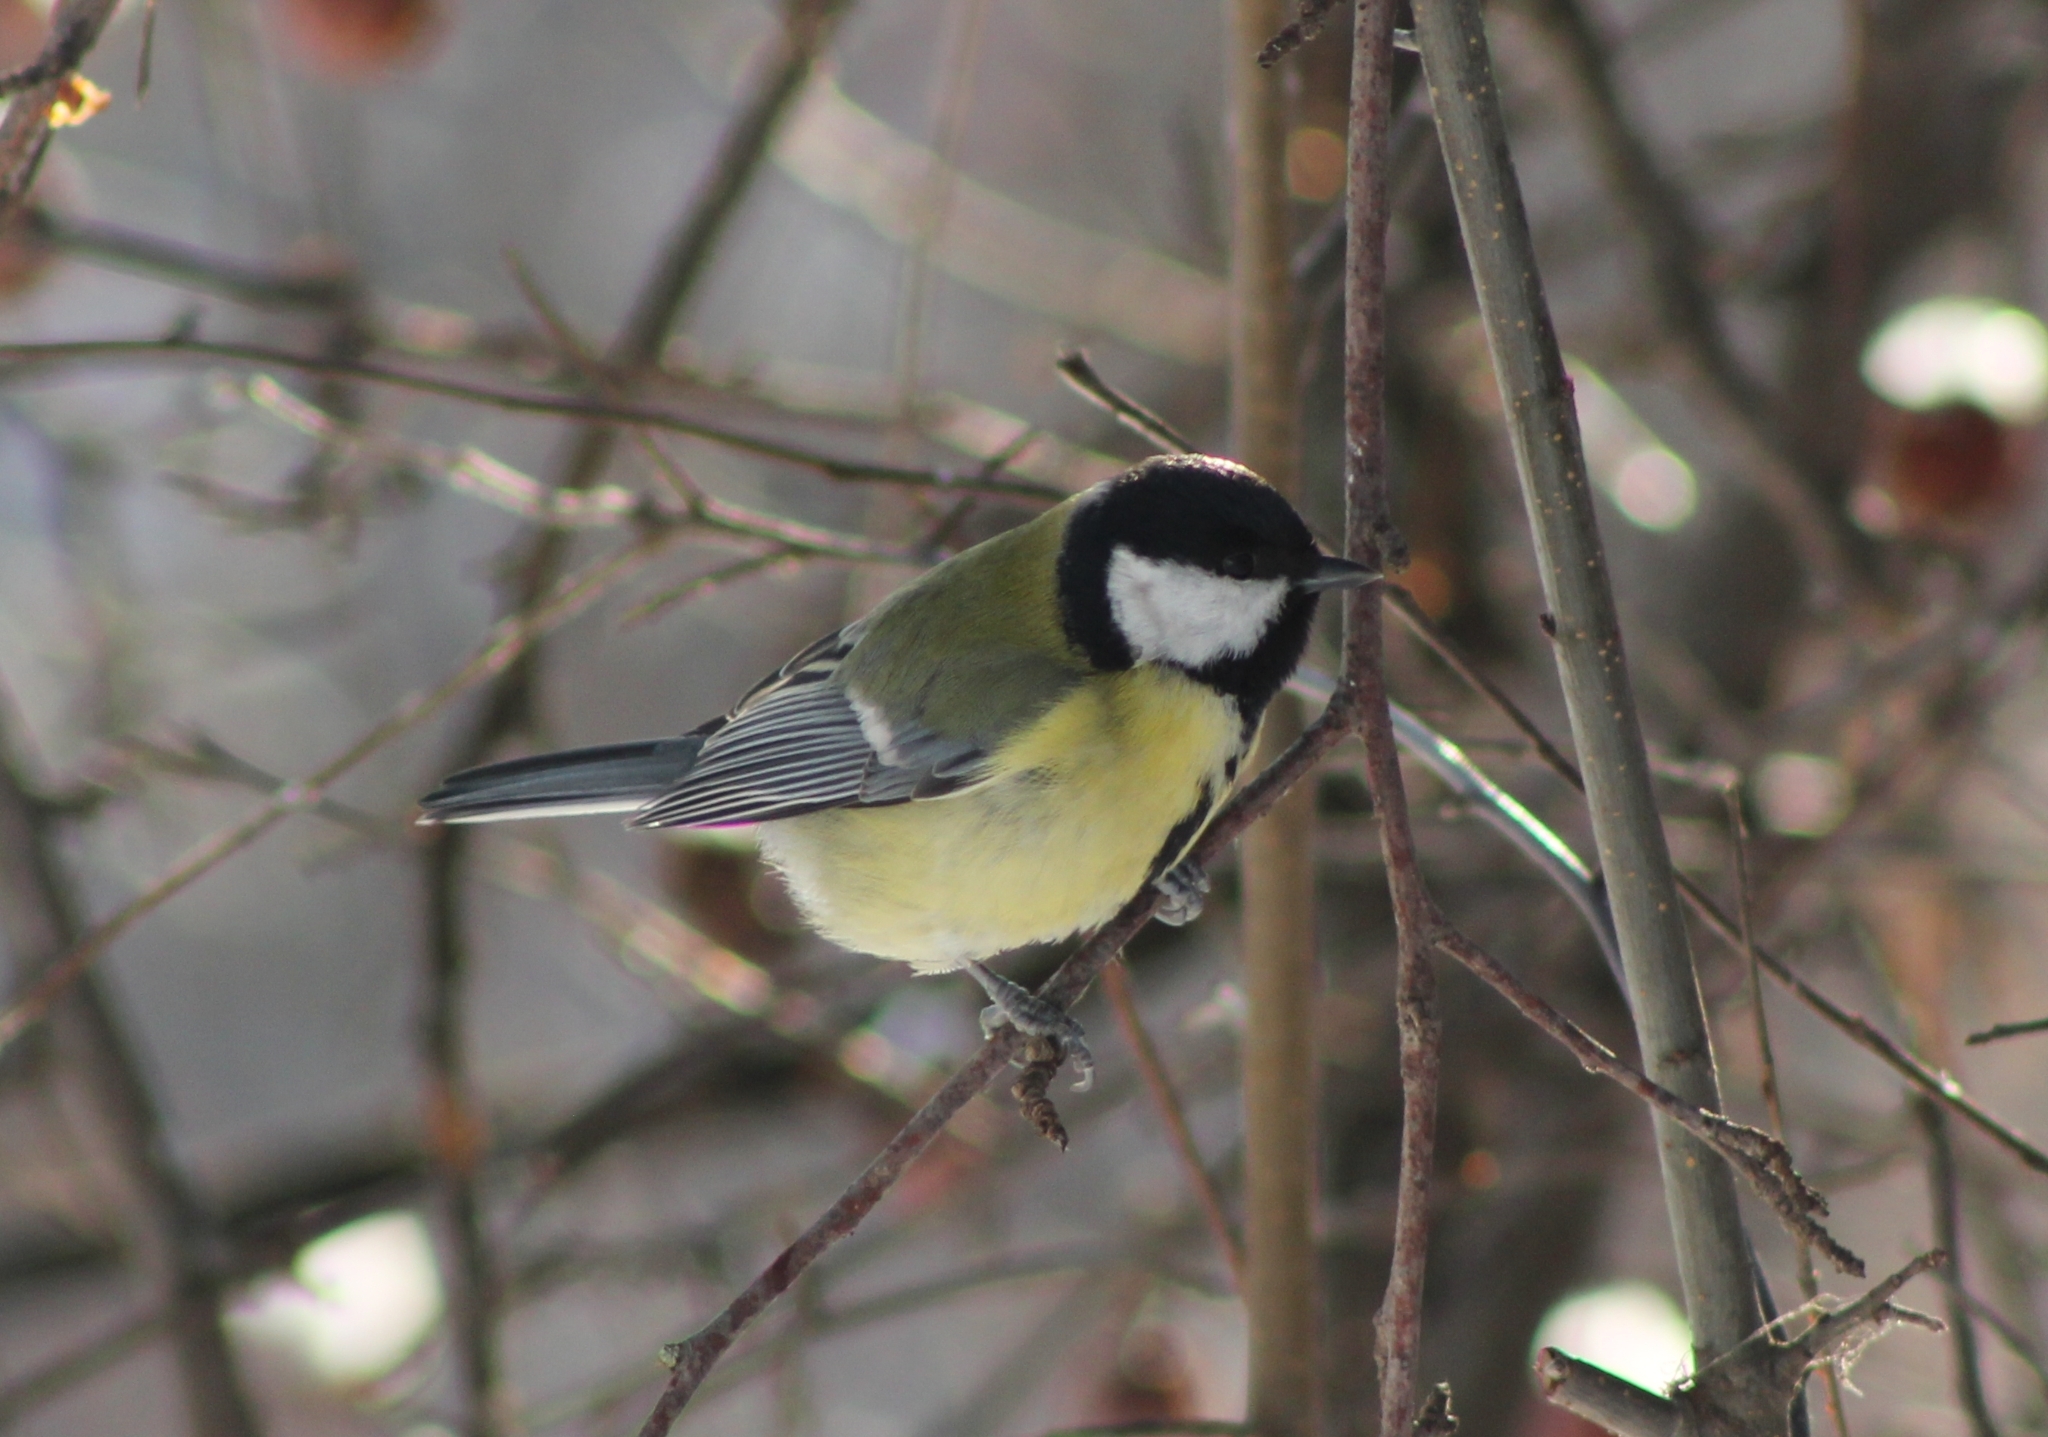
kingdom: Animalia
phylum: Chordata
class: Aves
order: Passeriformes
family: Paridae
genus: Parus
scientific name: Parus major
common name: Great tit
